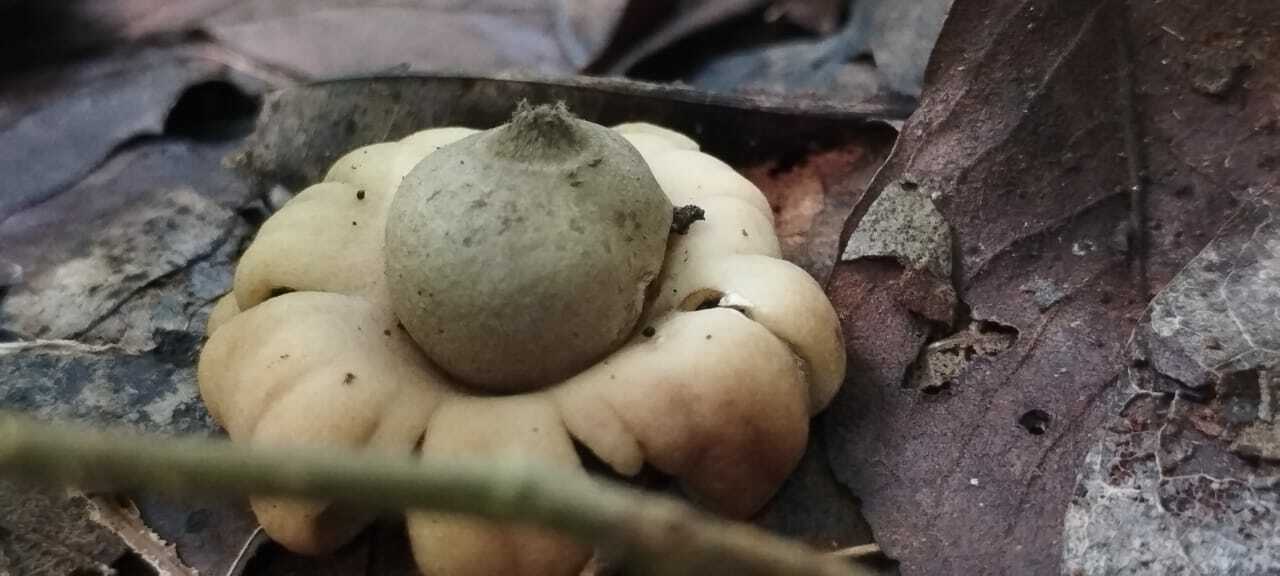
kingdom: Fungi
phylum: Basidiomycota
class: Agaricomycetes
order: Geastrales
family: Geastraceae
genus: Geastrum
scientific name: Geastrum saccatum
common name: Rounded earthstar
